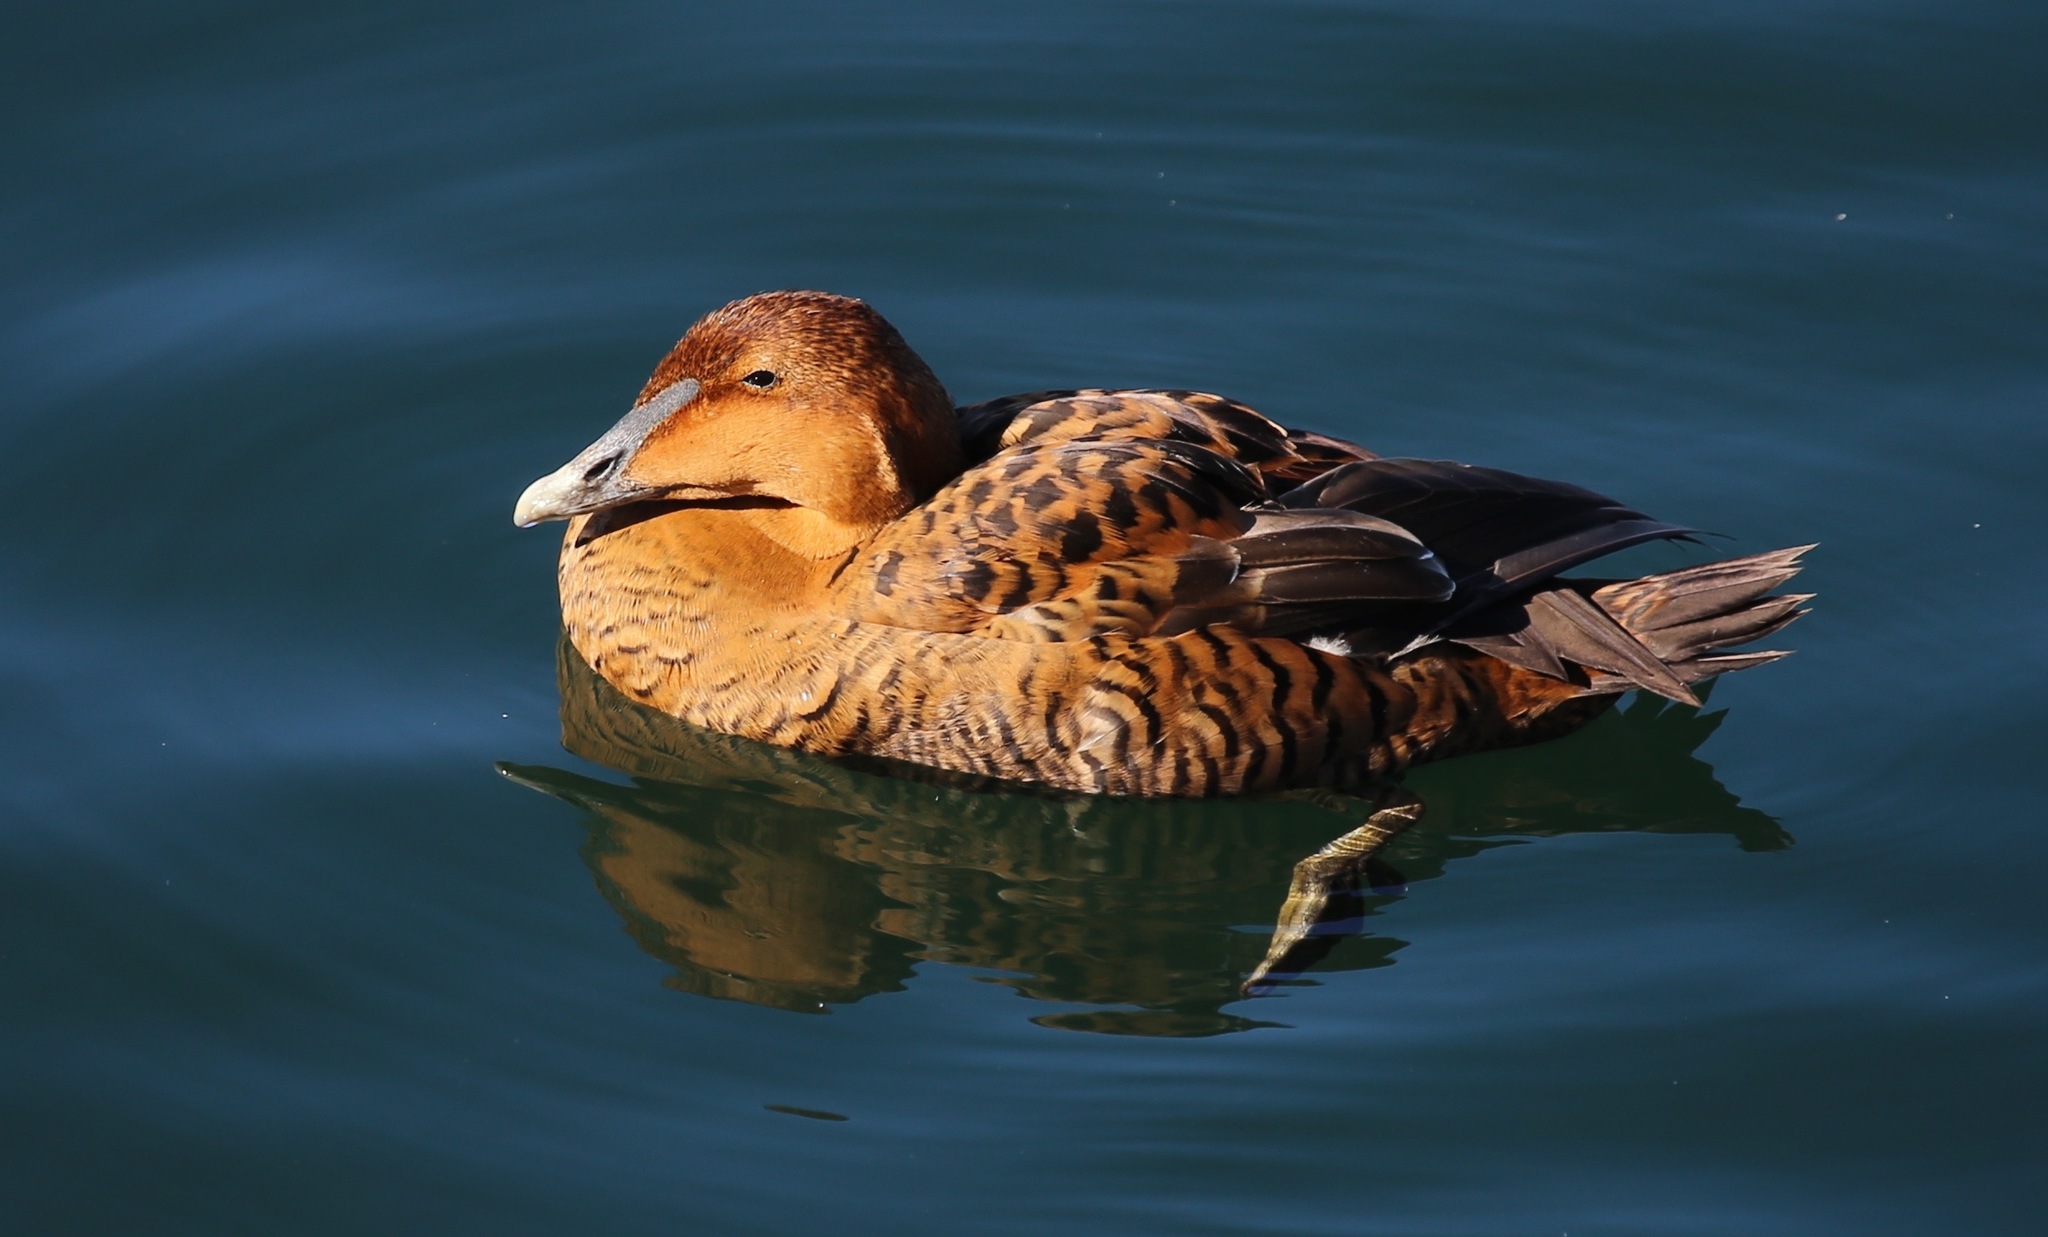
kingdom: Animalia
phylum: Chordata
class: Aves
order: Anseriformes
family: Anatidae
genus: Somateria
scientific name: Somateria mollissima
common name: Common eider
